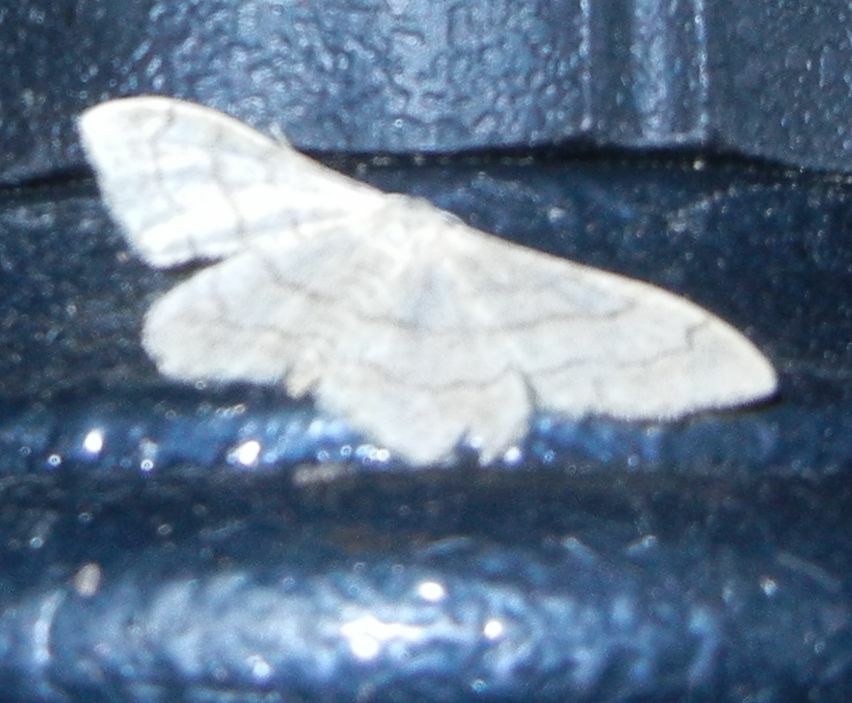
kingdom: Animalia
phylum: Arthropoda
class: Insecta
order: Lepidoptera
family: Geometridae
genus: Idaea
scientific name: Idaea aversata
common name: Riband wave
